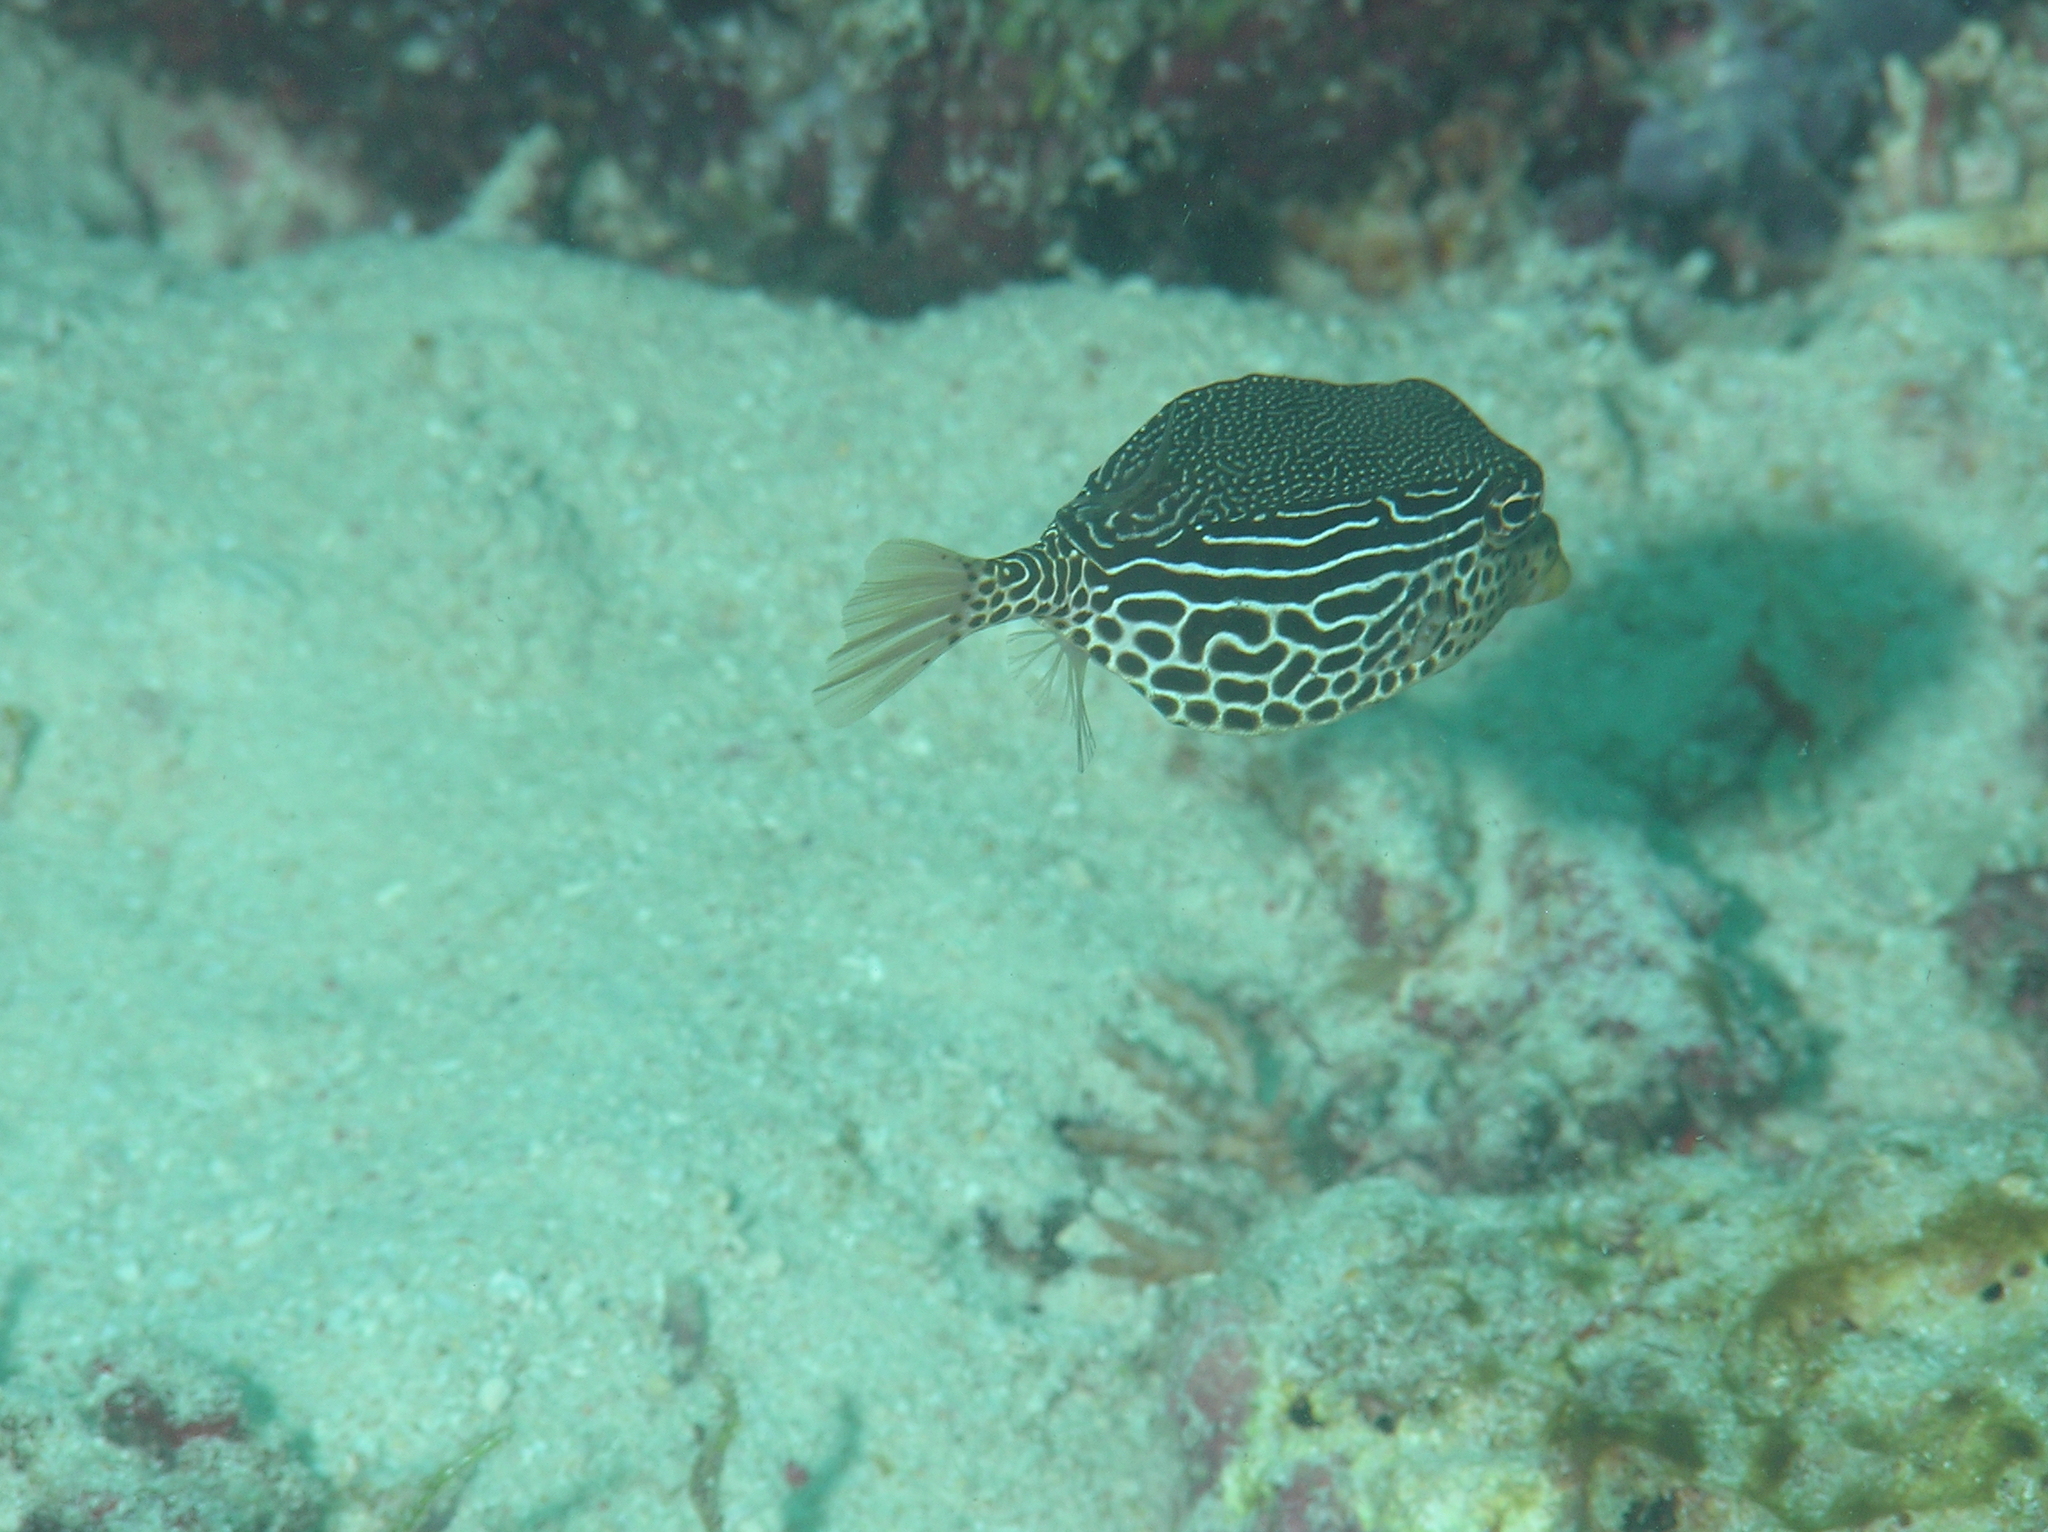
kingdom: Animalia
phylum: Chordata
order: Tetraodontiformes
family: Ostraciidae
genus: Ostracion
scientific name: Ostracion solorense
